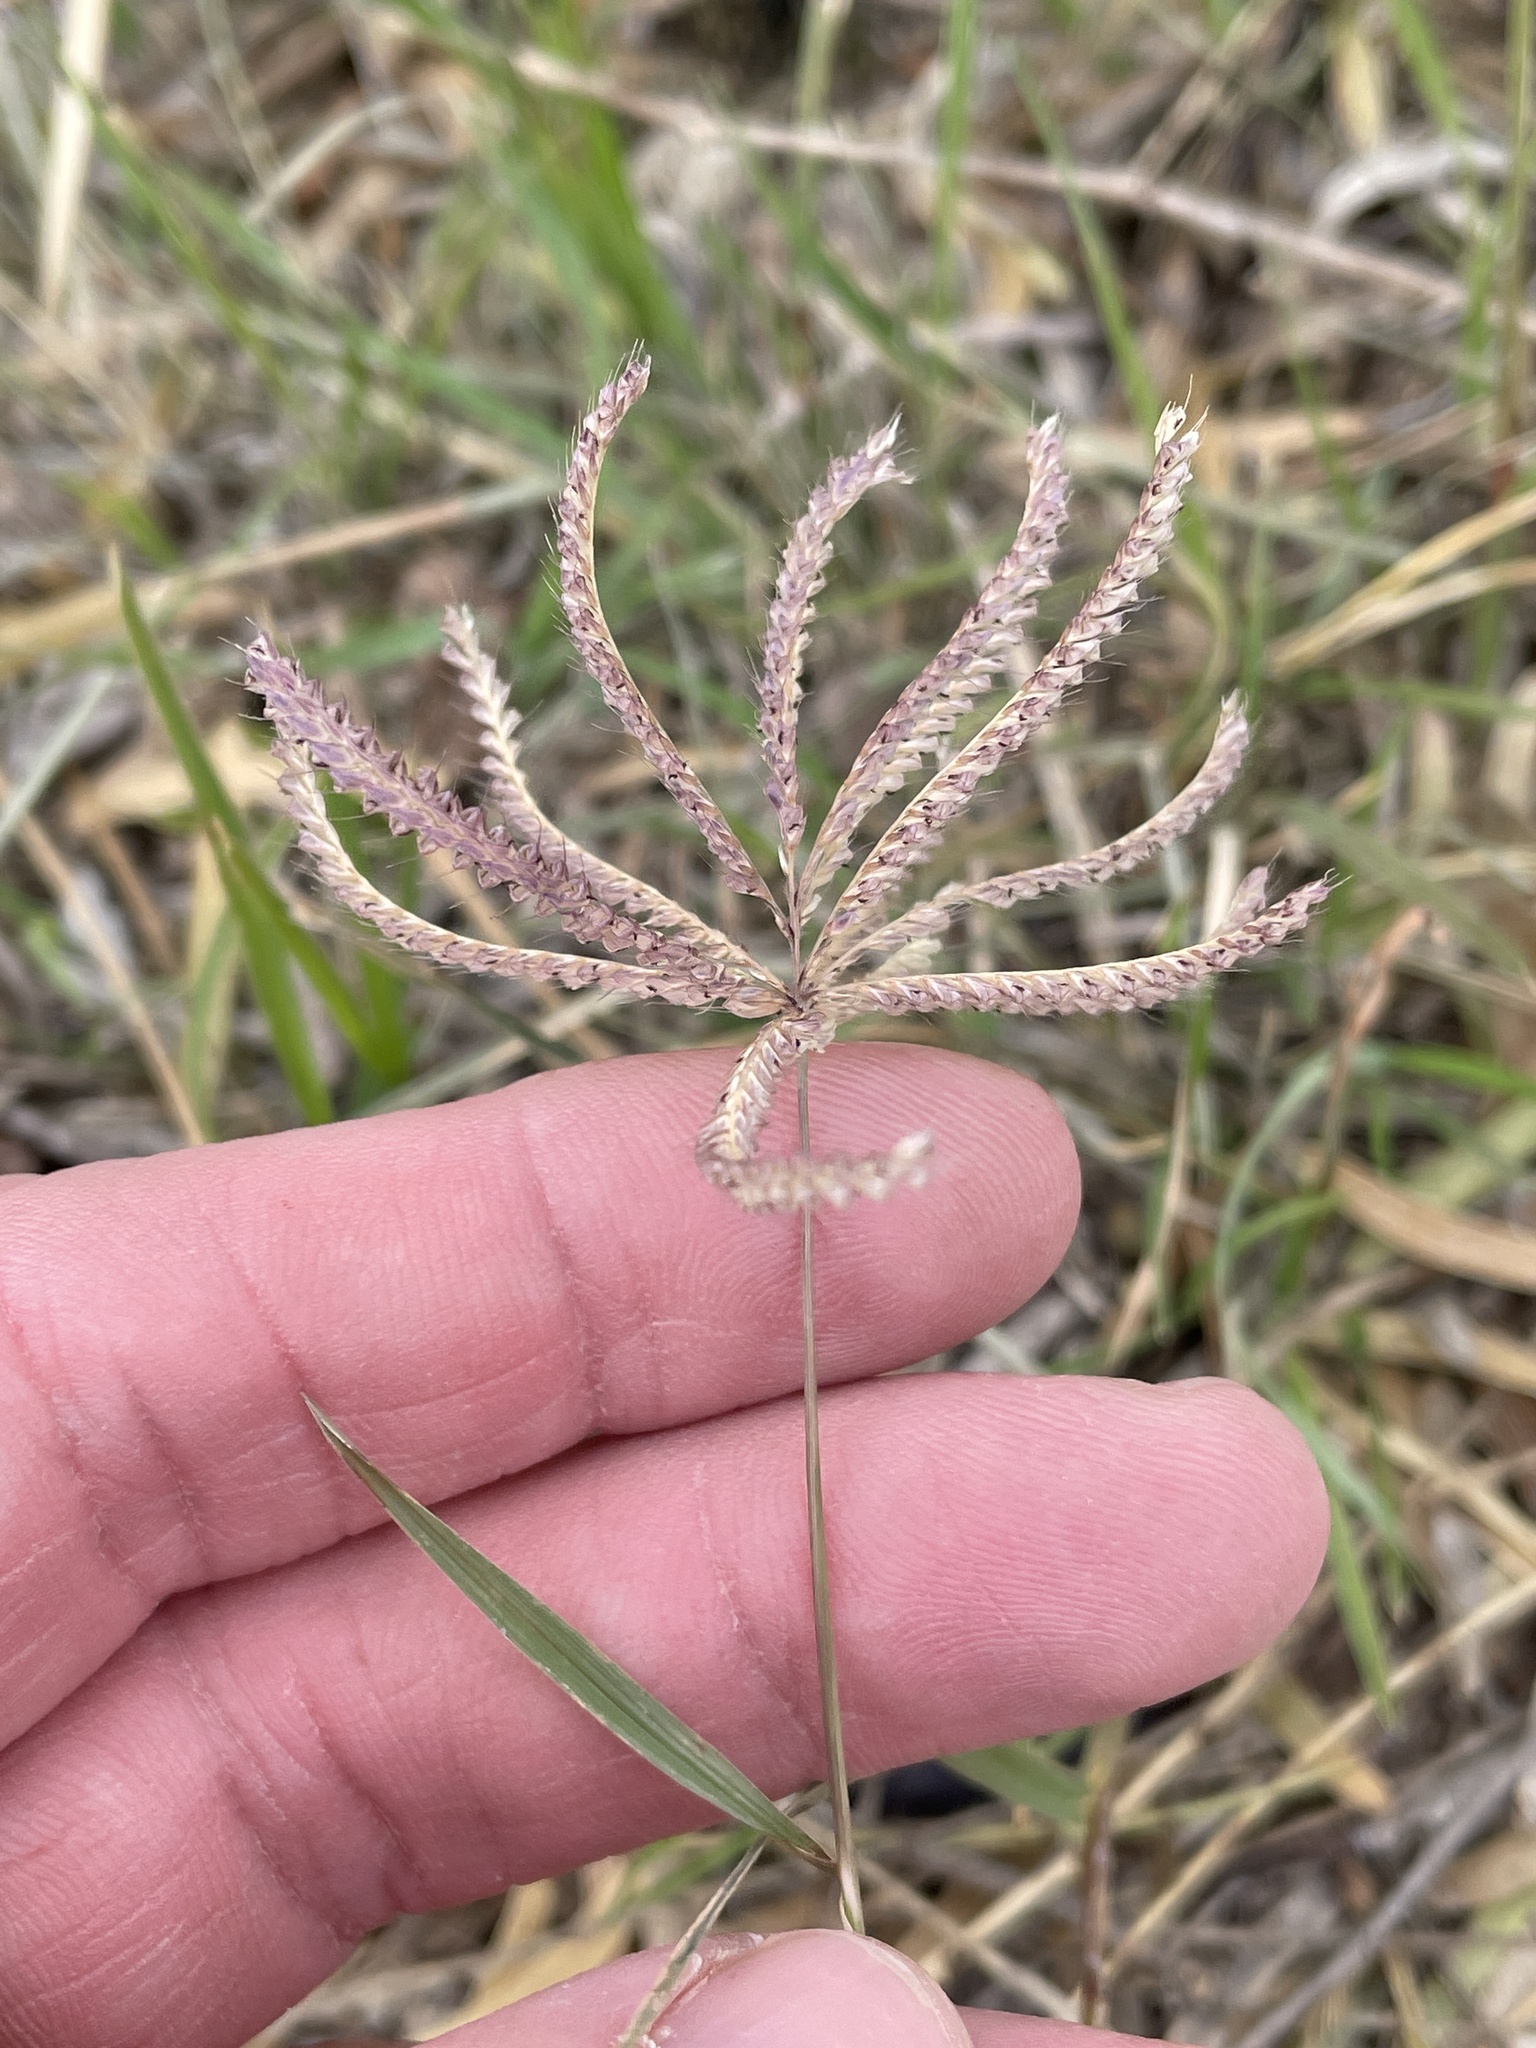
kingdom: Plantae
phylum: Tracheophyta
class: Liliopsida
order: Poales
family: Poaceae
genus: Chloris
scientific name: Chloris cucullata
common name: Hooded windmill grass
